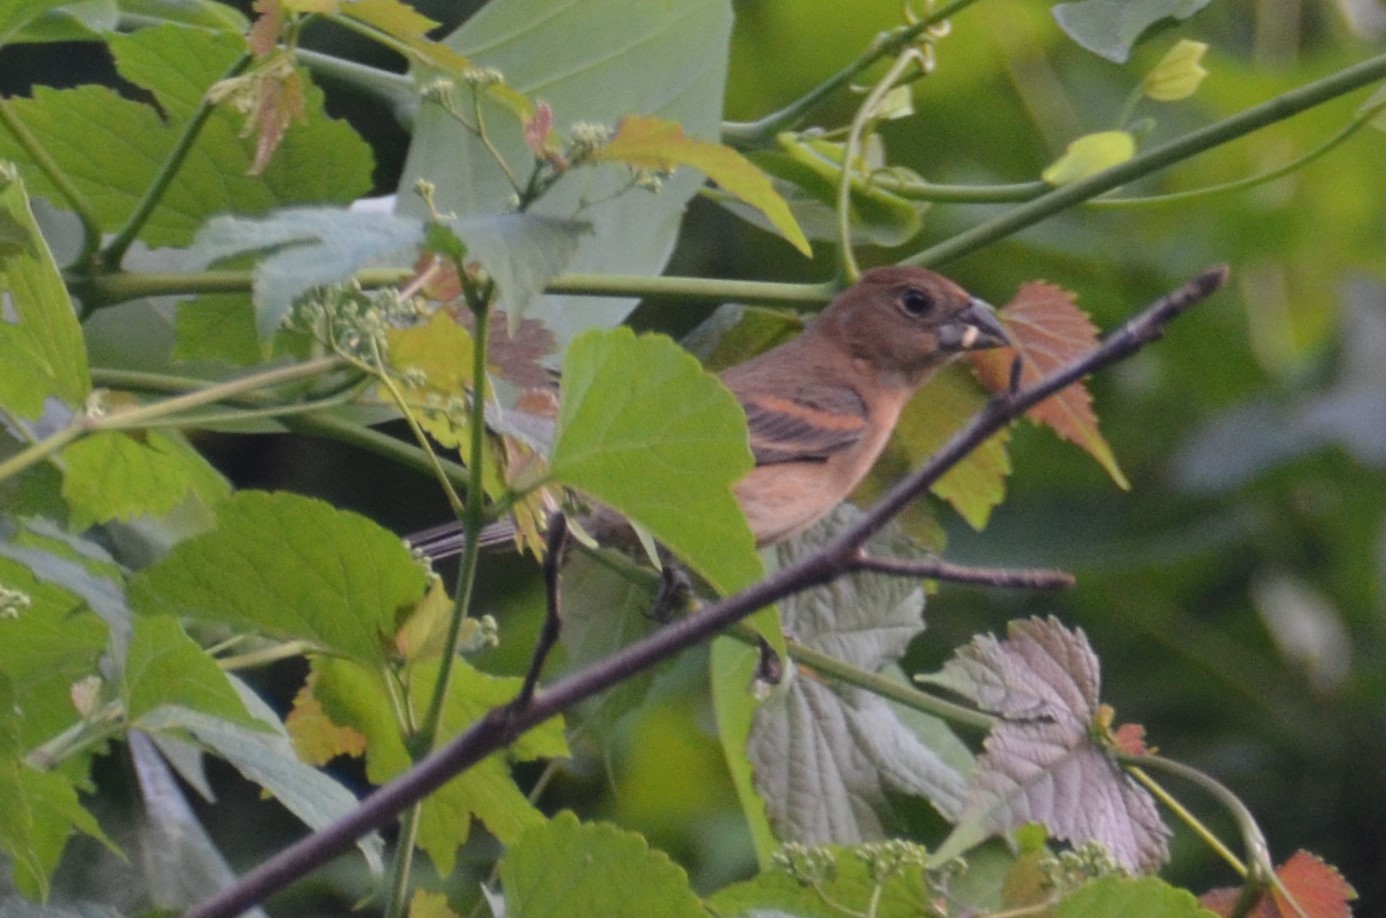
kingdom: Animalia
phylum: Chordata
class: Aves
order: Passeriformes
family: Cardinalidae
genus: Passerina
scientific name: Passerina cyanea
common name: Indigo bunting
